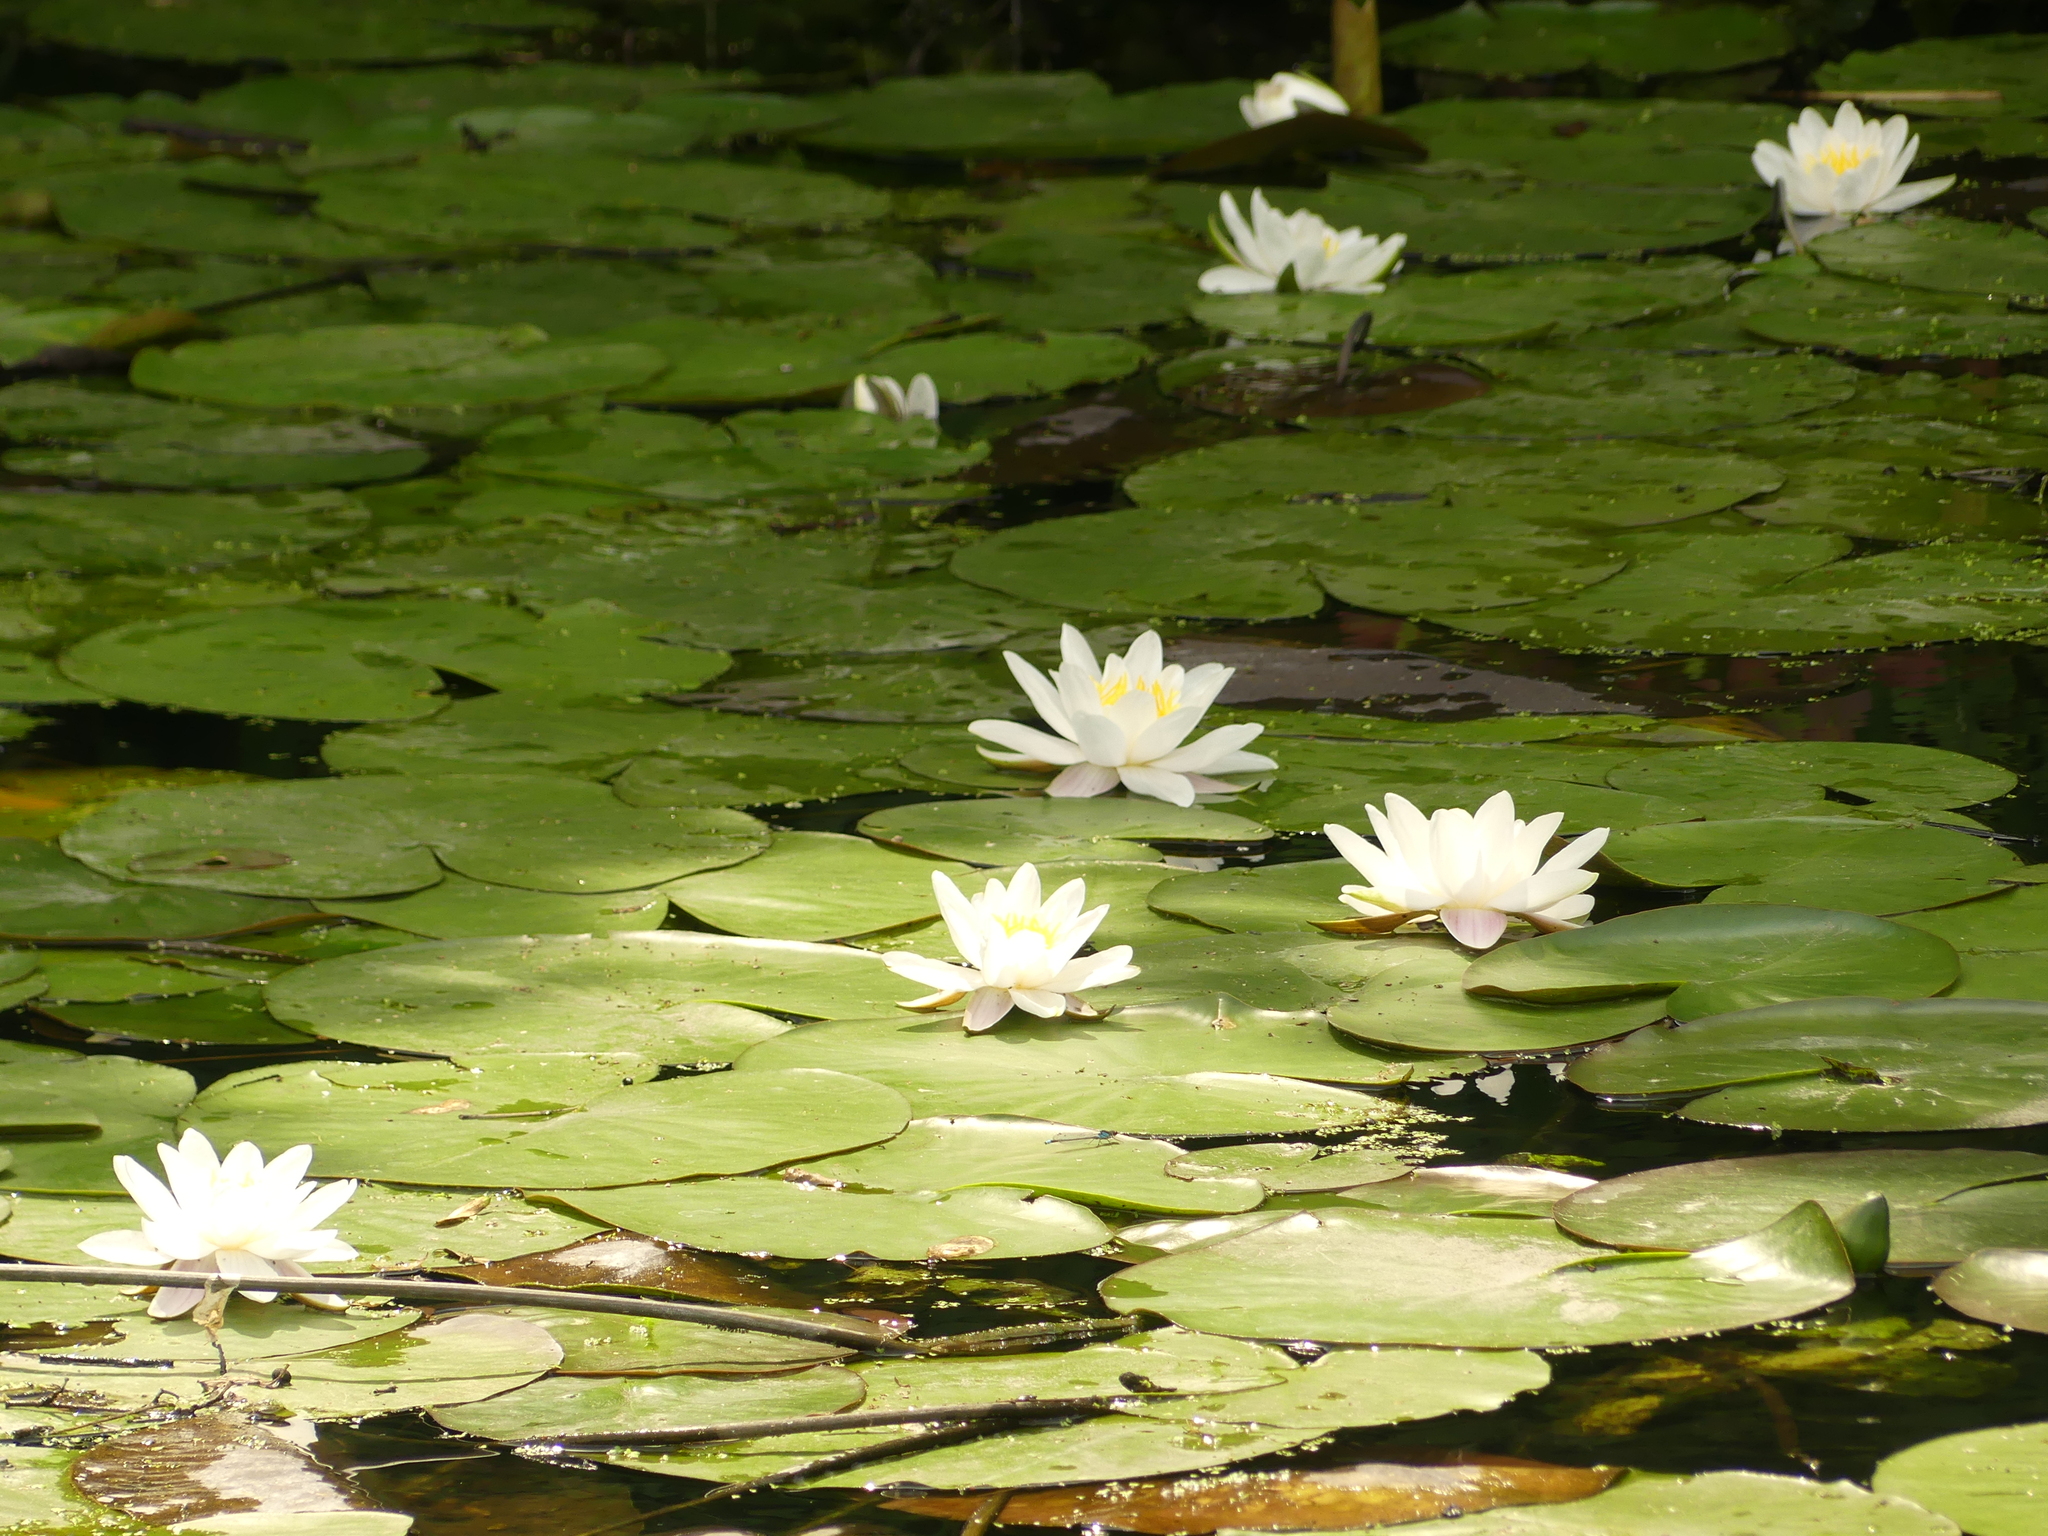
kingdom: Plantae
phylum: Tracheophyta
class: Magnoliopsida
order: Nymphaeales
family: Nymphaeaceae
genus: Nymphaea
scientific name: Nymphaea alba
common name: White water-lily
